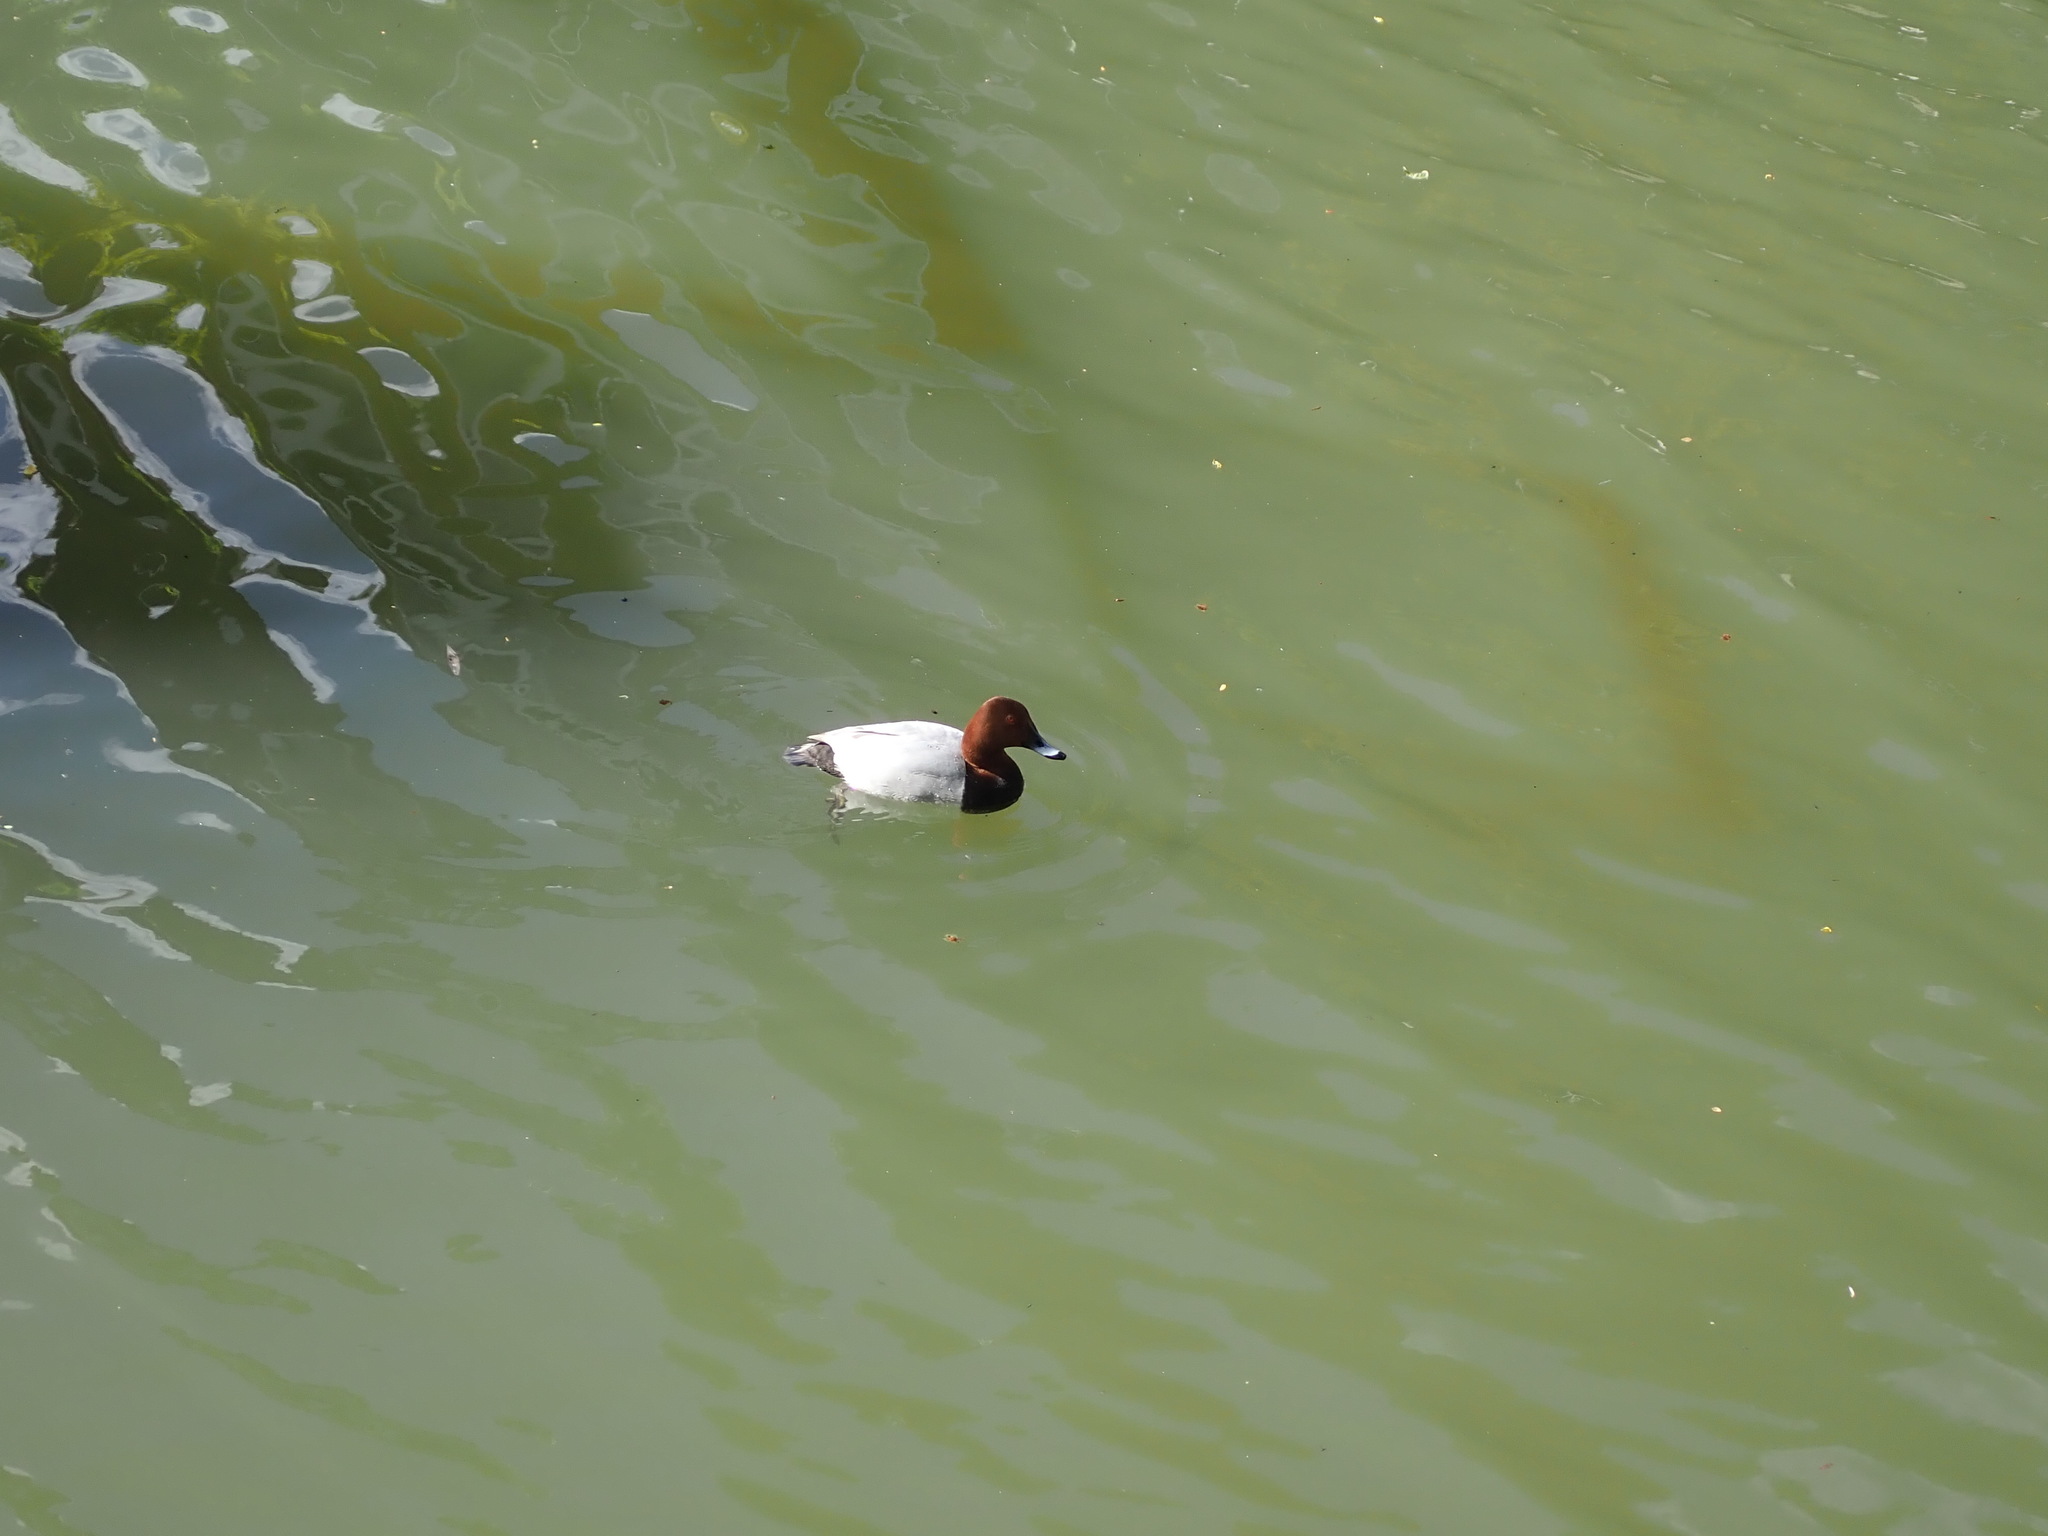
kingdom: Animalia
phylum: Chordata
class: Aves
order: Anseriformes
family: Anatidae
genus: Aythya
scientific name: Aythya ferina
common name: Common pochard
